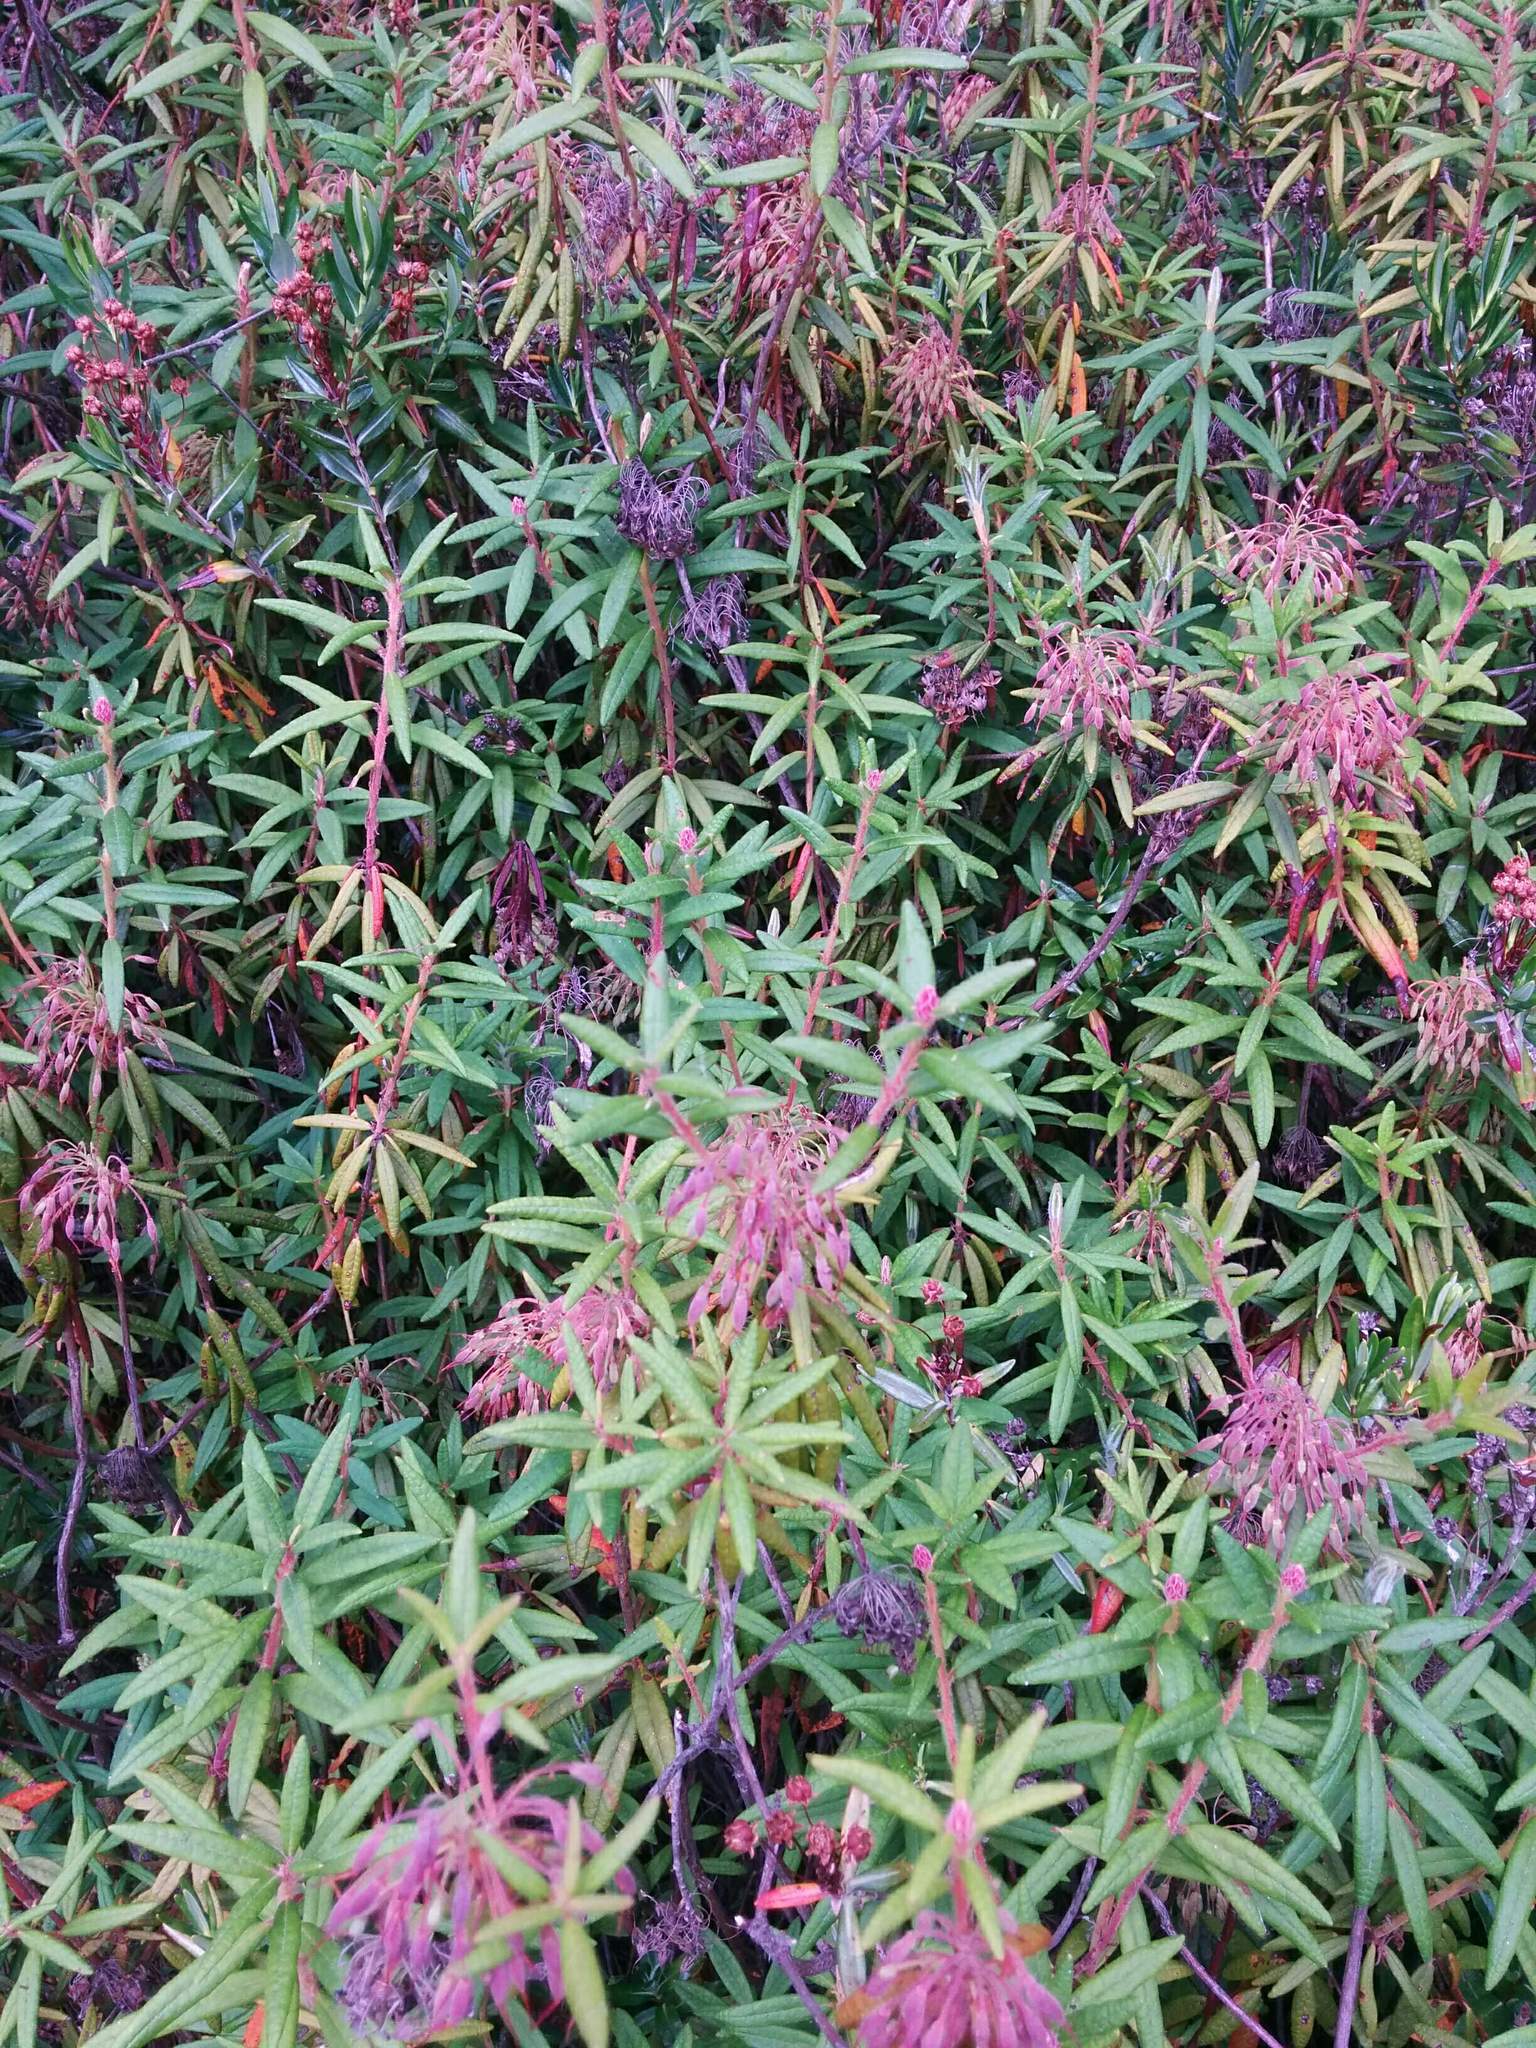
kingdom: Plantae
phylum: Tracheophyta
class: Magnoliopsida
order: Ericales
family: Ericaceae
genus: Rhododendron
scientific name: Rhododendron groenlandicum
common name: Bog labrador tea
